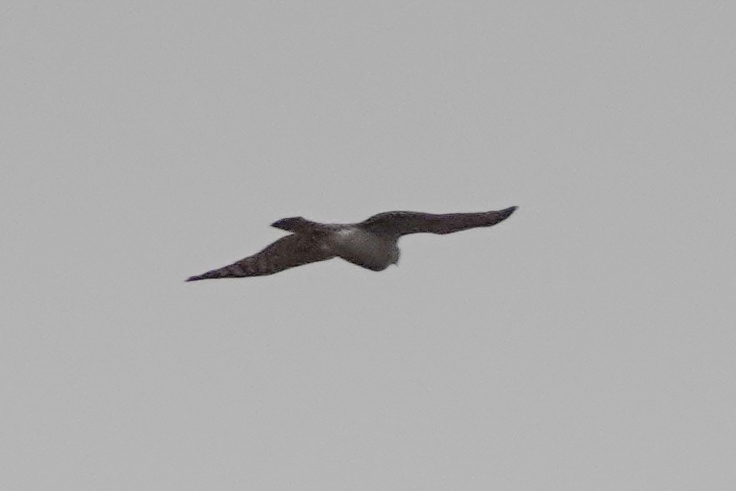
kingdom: Animalia
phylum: Chordata
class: Aves
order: Accipitriformes
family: Accipitridae
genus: Accipiter
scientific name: Accipiter nisus
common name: Eurasian sparrowhawk
